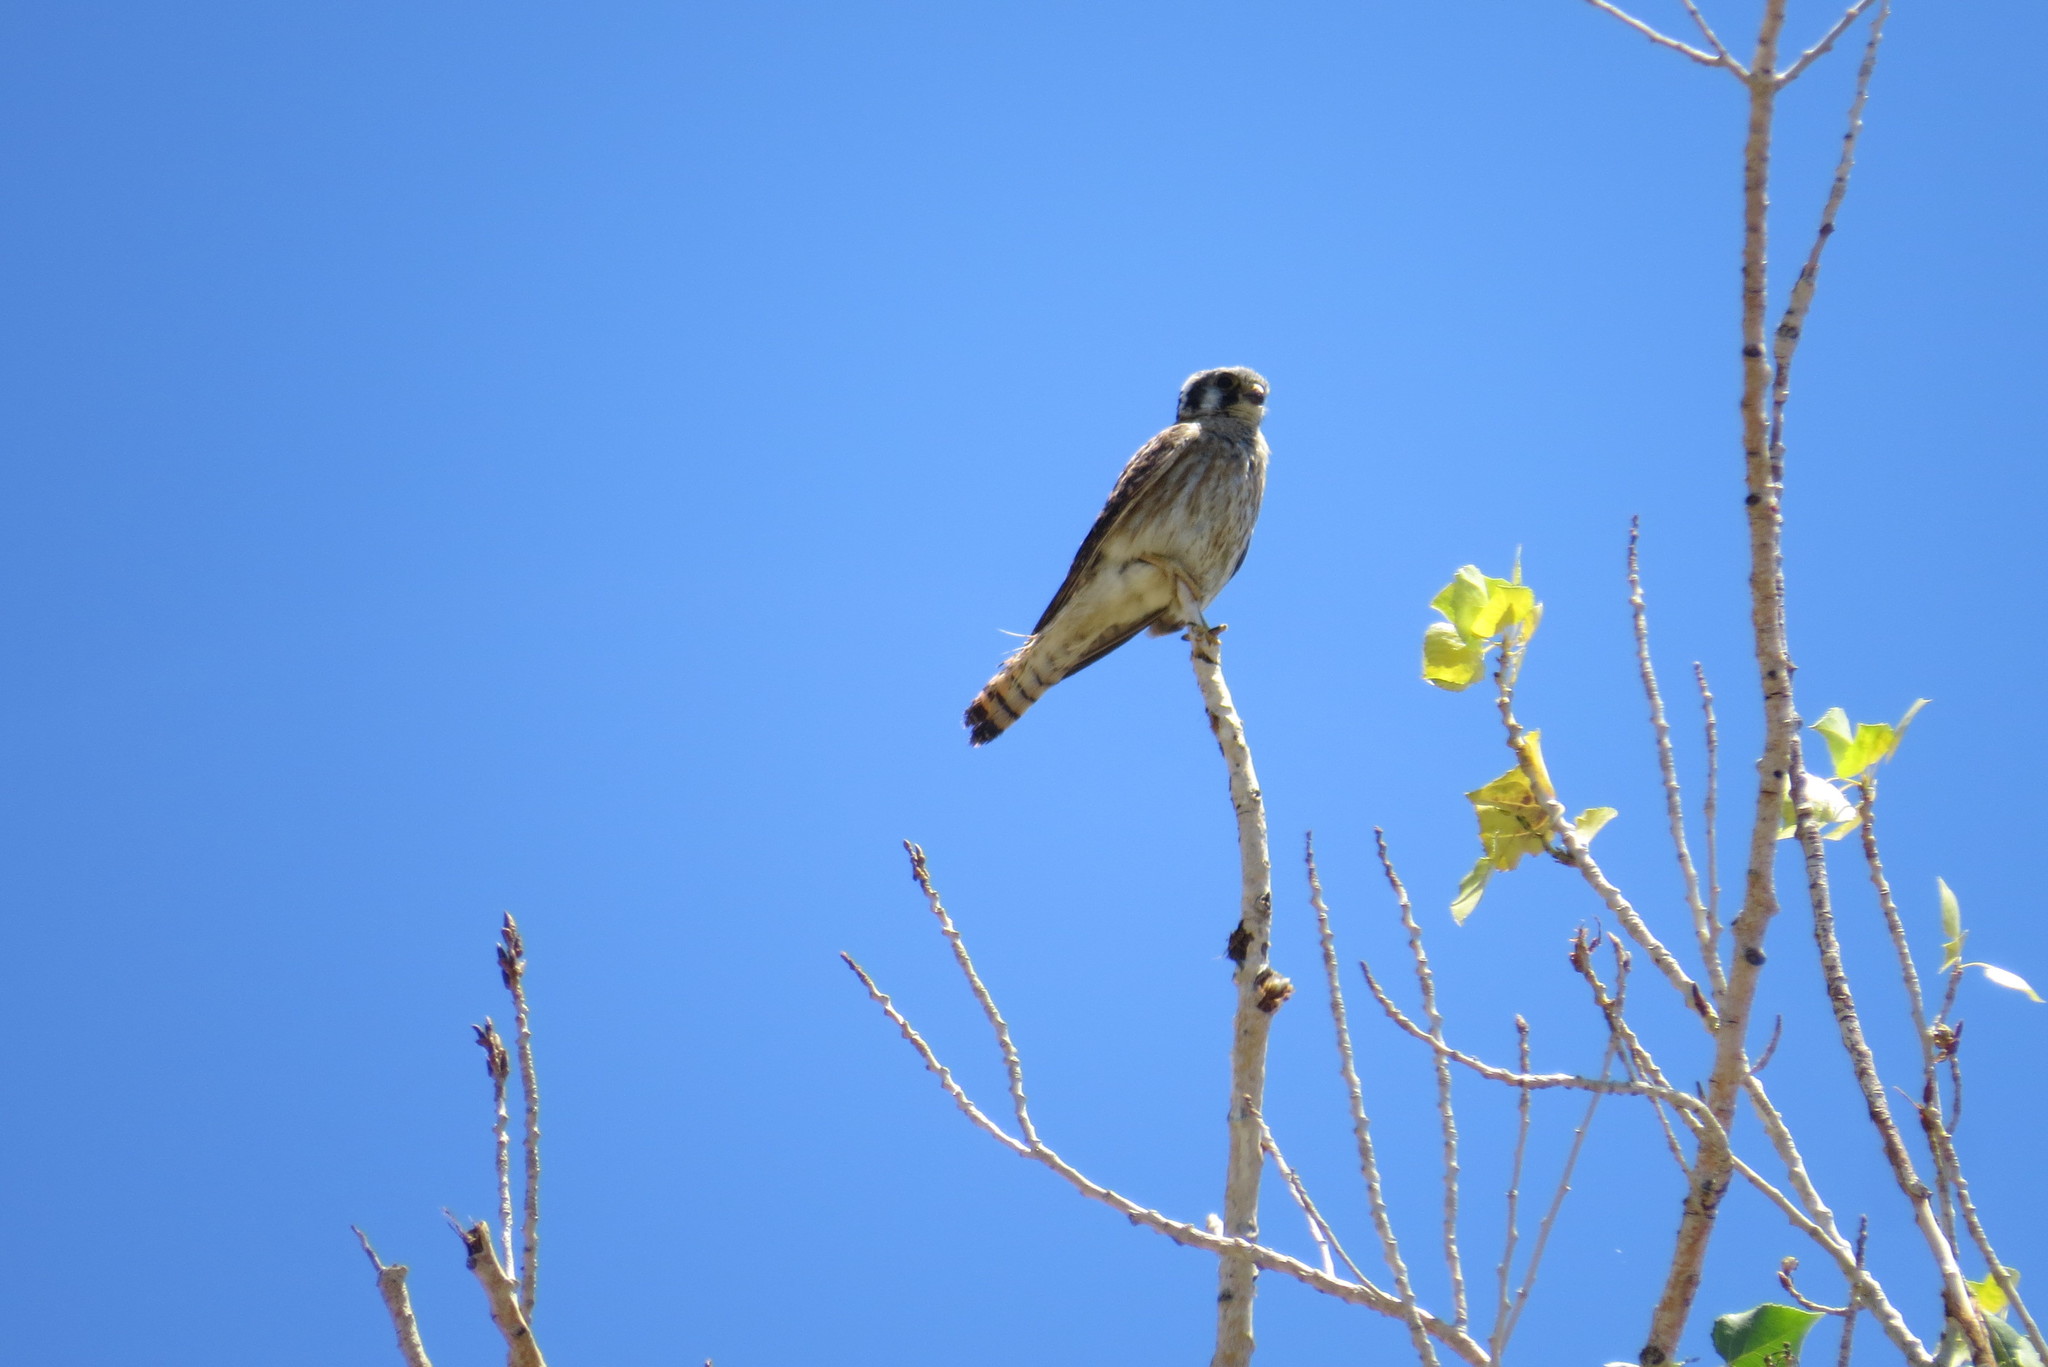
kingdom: Animalia
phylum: Chordata
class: Aves
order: Falconiformes
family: Falconidae
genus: Falco
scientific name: Falco sparverius
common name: American kestrel
